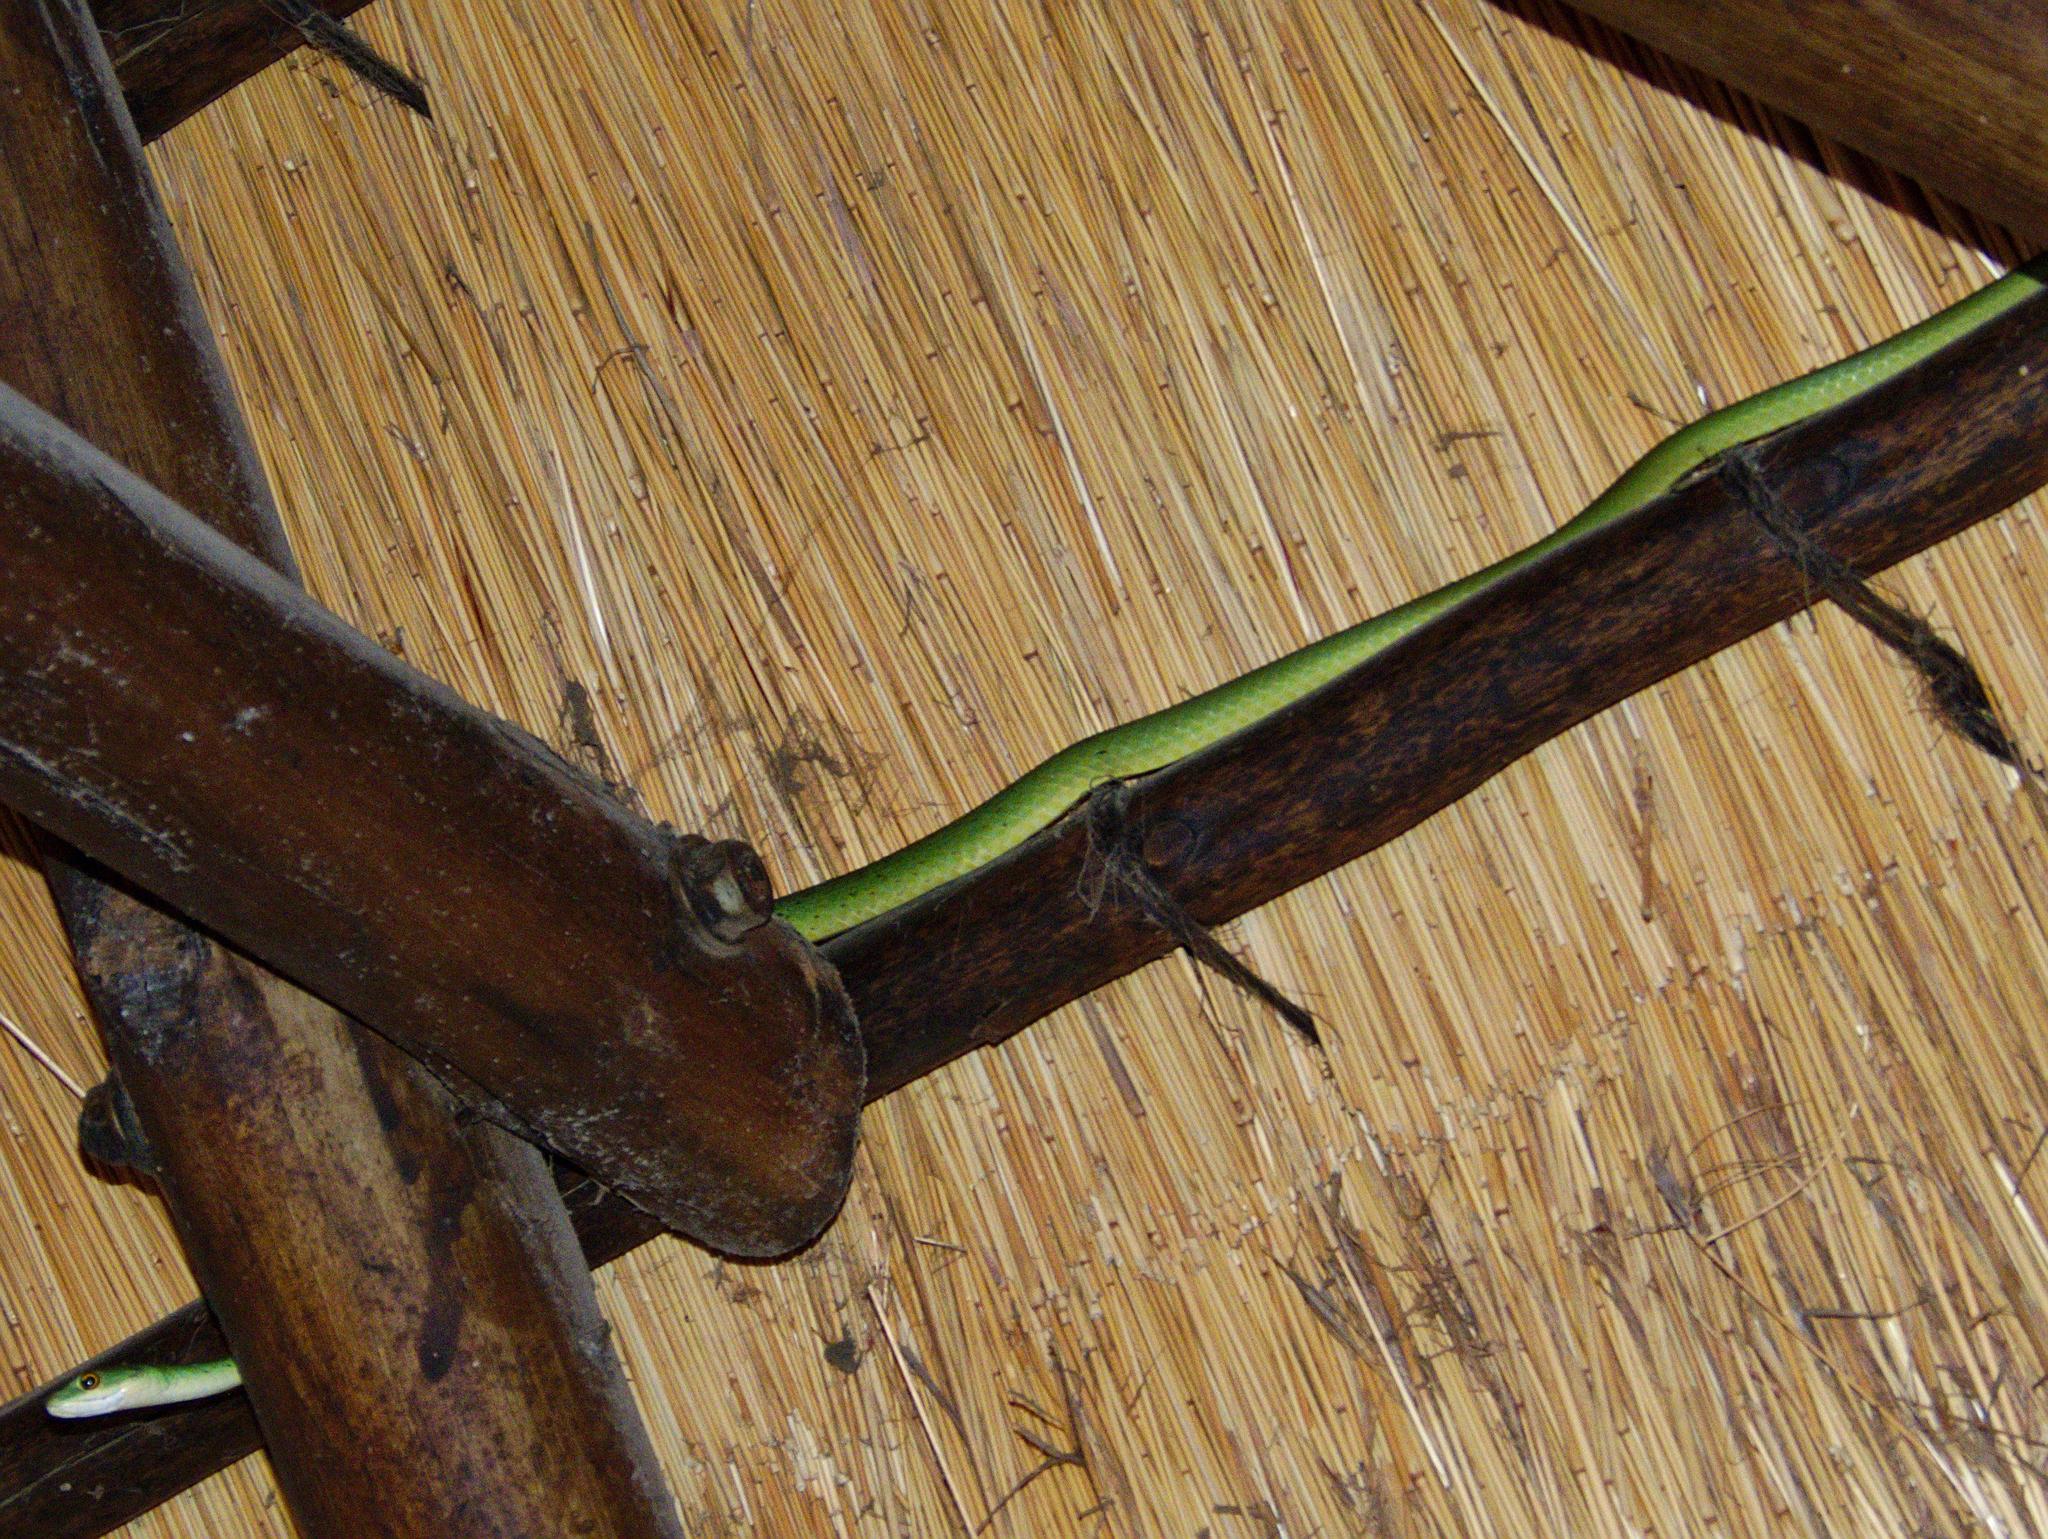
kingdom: Animalia
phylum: Chordata
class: Squamata
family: Colubridae
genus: Philothamnus
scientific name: Philothamnus semivariegatus
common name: Spotted bush snake
